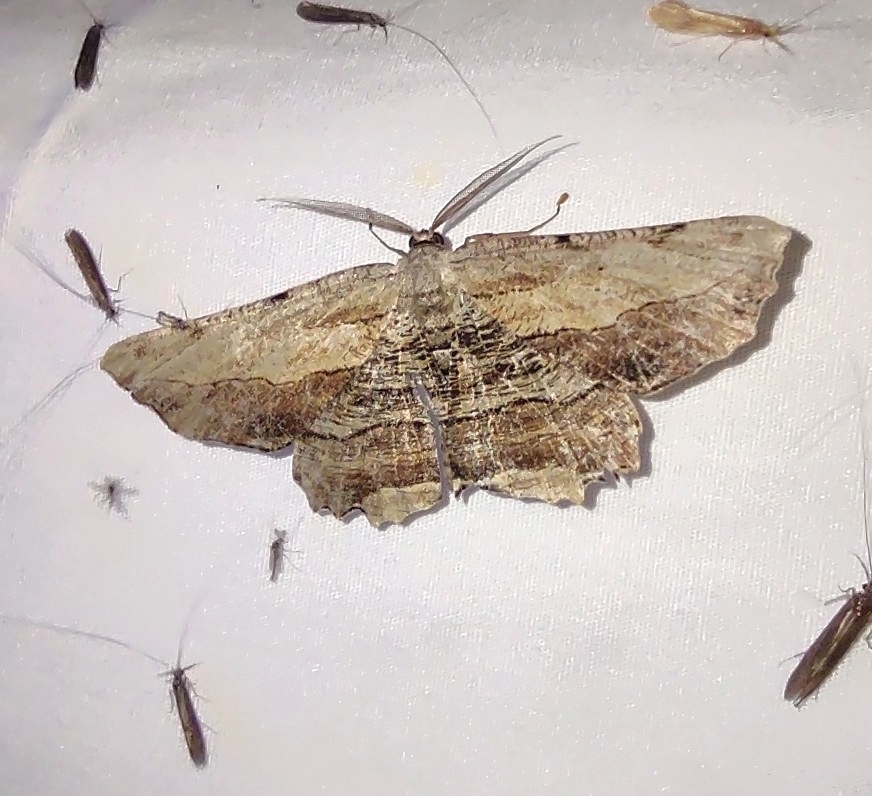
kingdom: Animalia
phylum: Arthropoda
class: Insecta
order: Lepidoptera
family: Geometridae
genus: Lytrosis
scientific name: Lytrosis unitaria
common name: Common lytrosis
